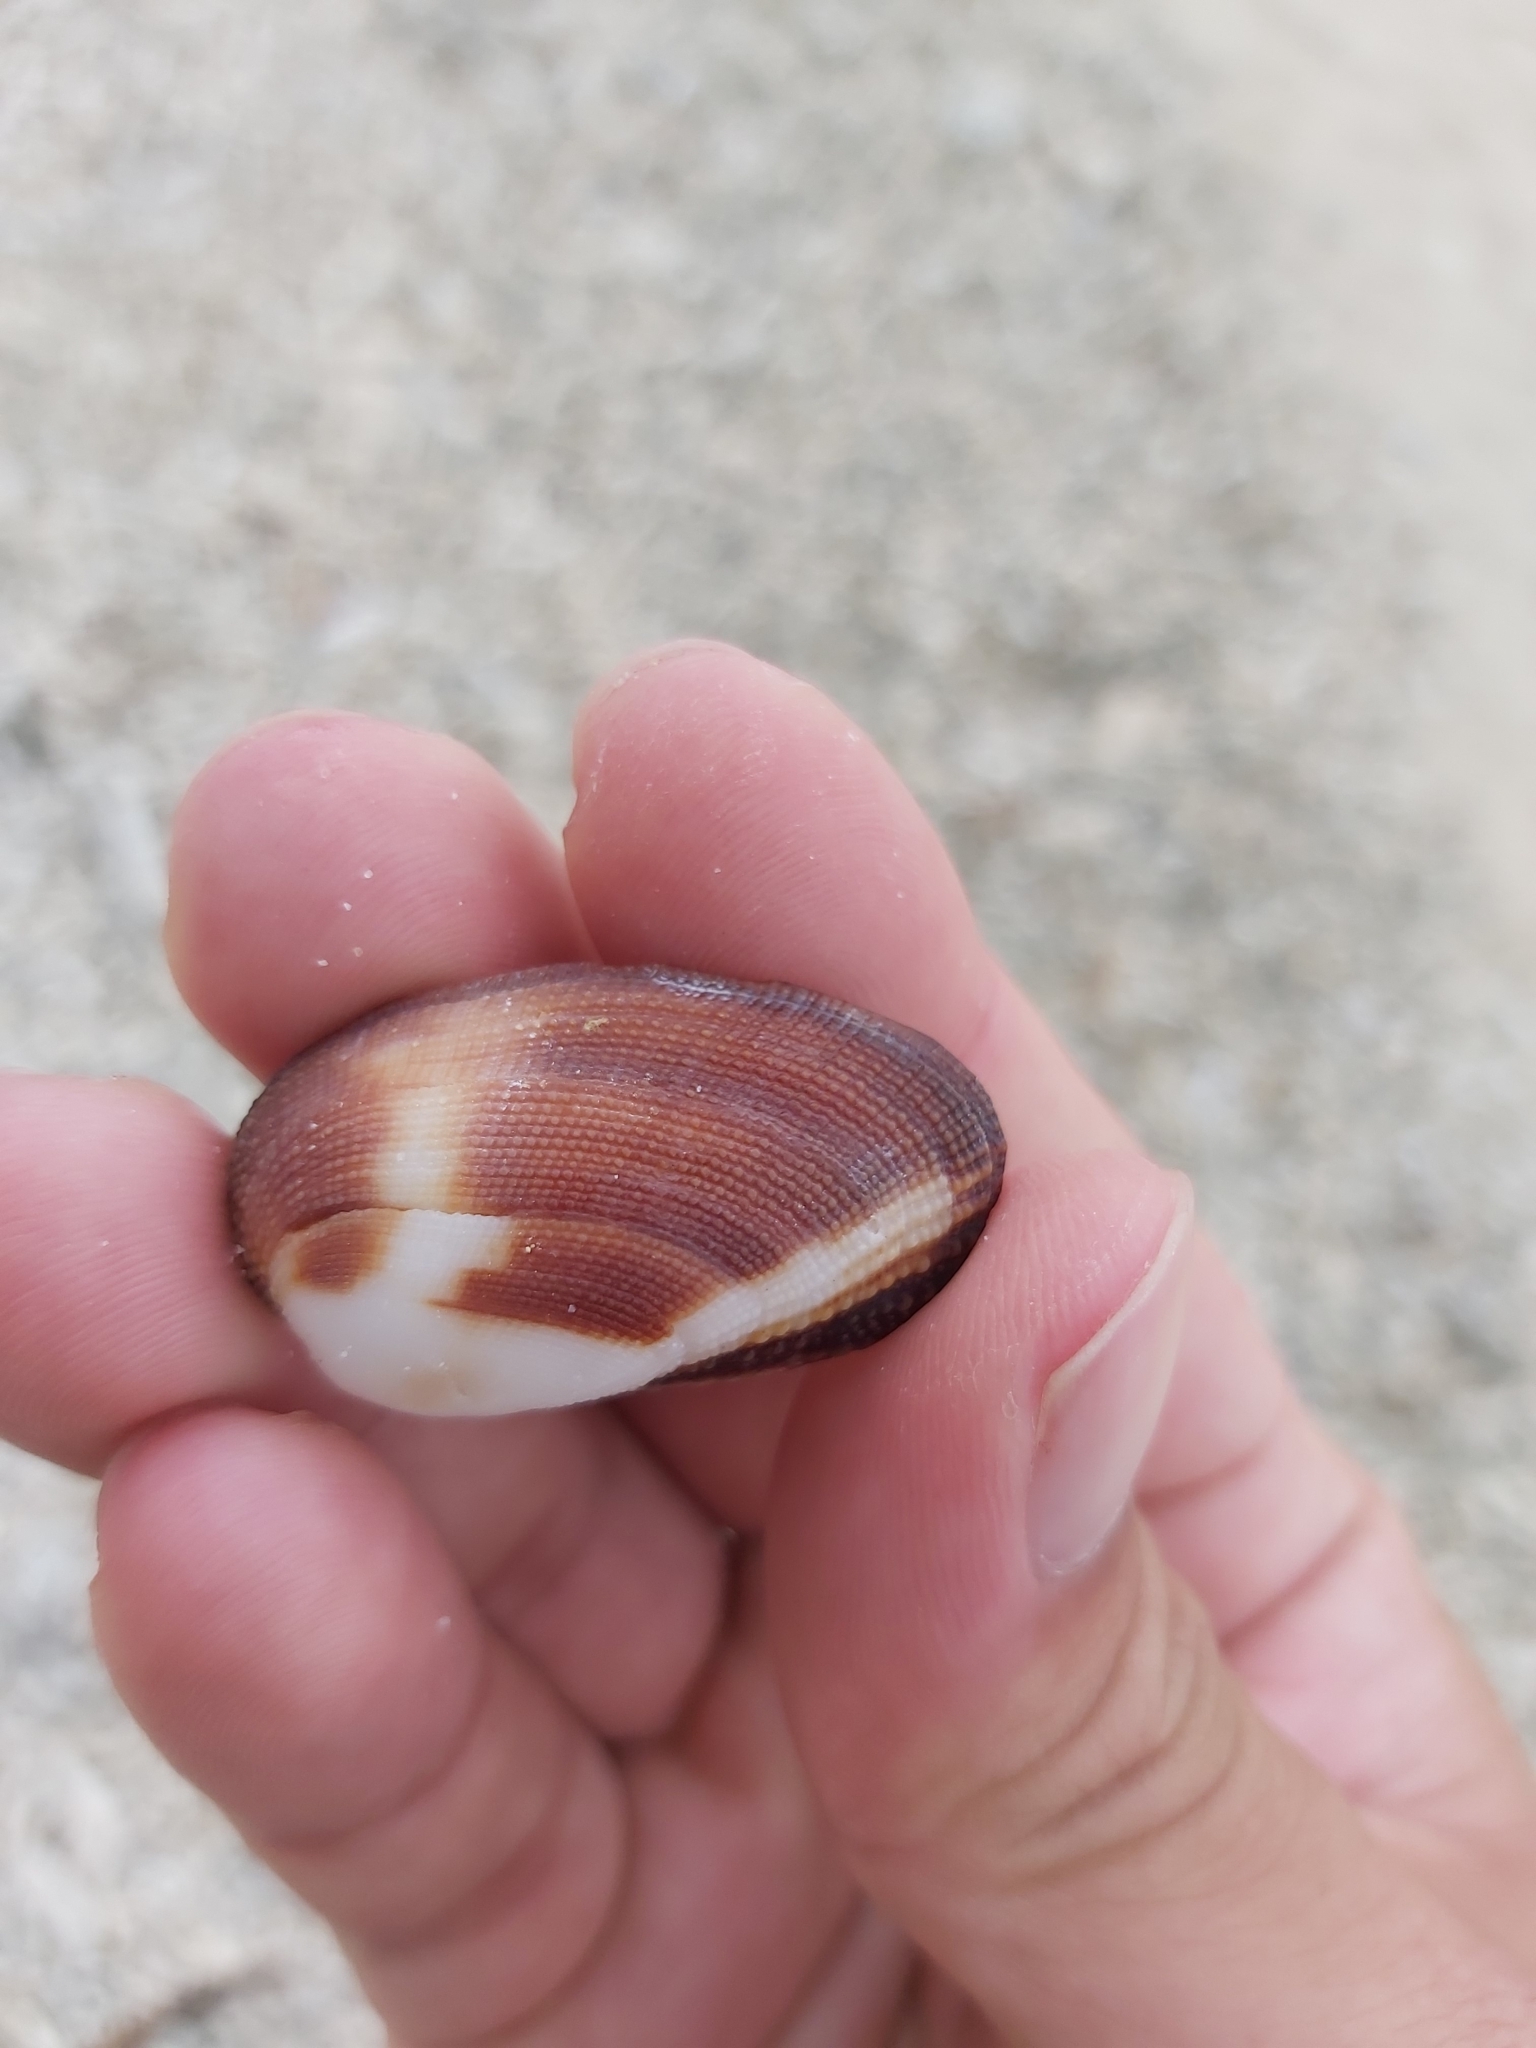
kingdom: Animalia
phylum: Mollusca
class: Bivalvia
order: Arcida
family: Arcidae
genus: Barbatia
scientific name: Barbatia amygdalumtostum
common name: Burnt-almond ark
